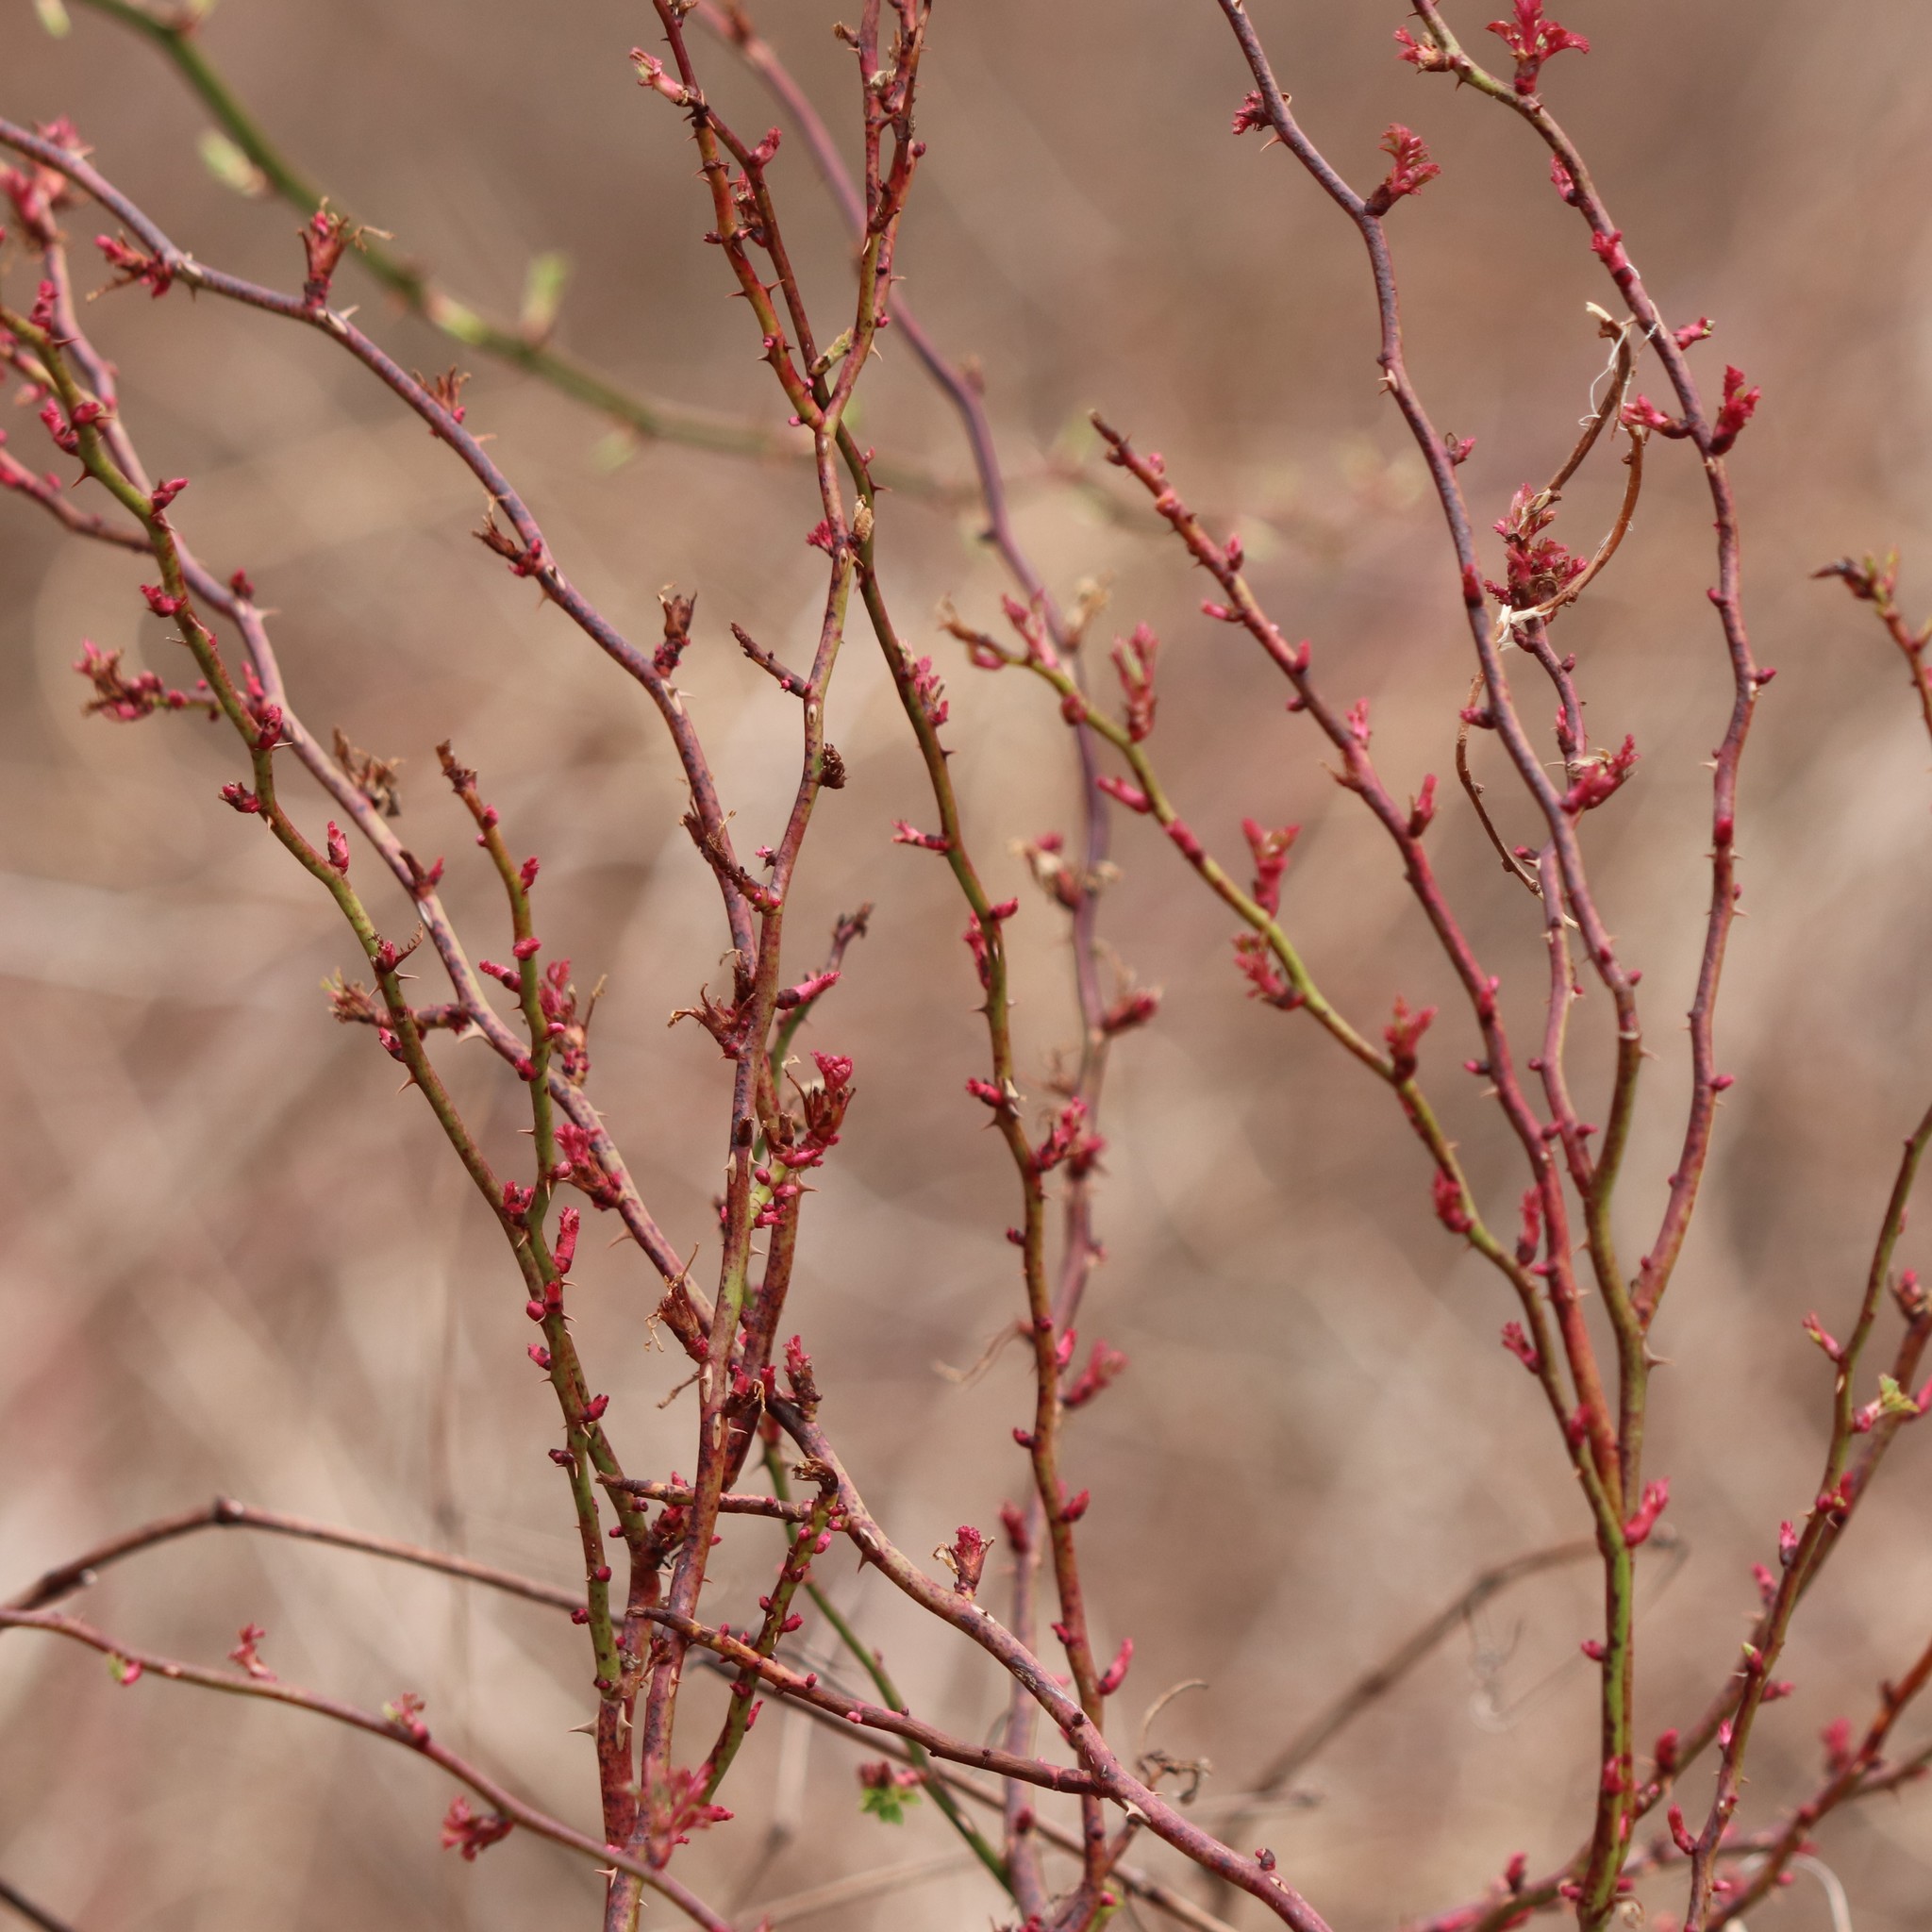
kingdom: Viruses
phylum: Negarnaviricota
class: Ellioviricetes
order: Bunyavirales
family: Fimoviridae
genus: Emaravirus
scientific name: Emaravirus rosae
